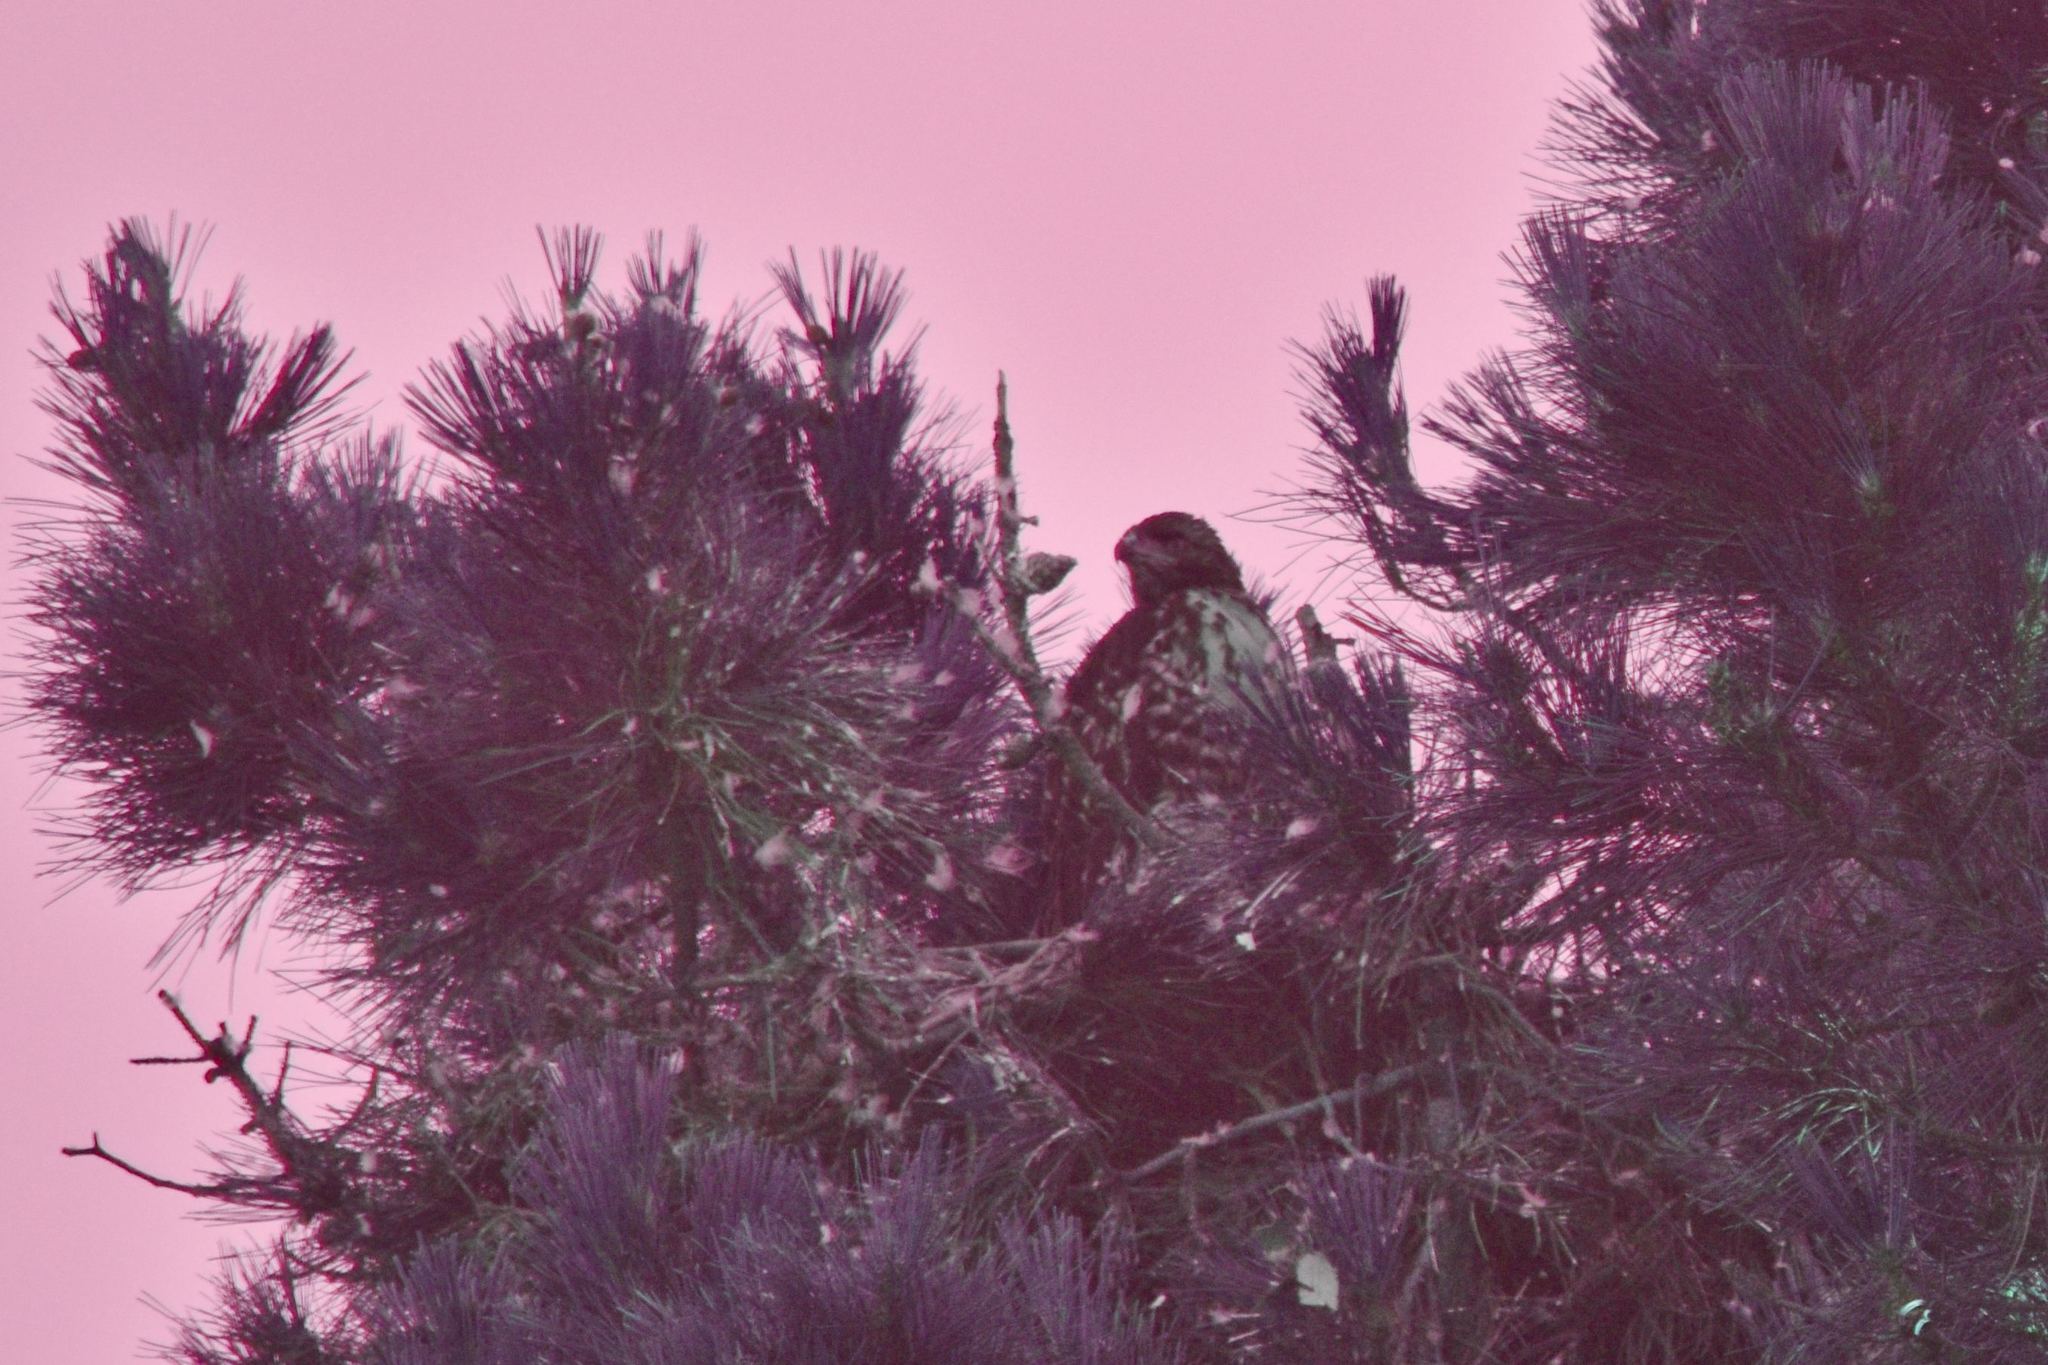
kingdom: Animalia
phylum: Chordata
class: Aves
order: Accipitriformes
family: Accipitridae
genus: Buteo
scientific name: Buteo jamaicensis
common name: Red-tailed hawk
